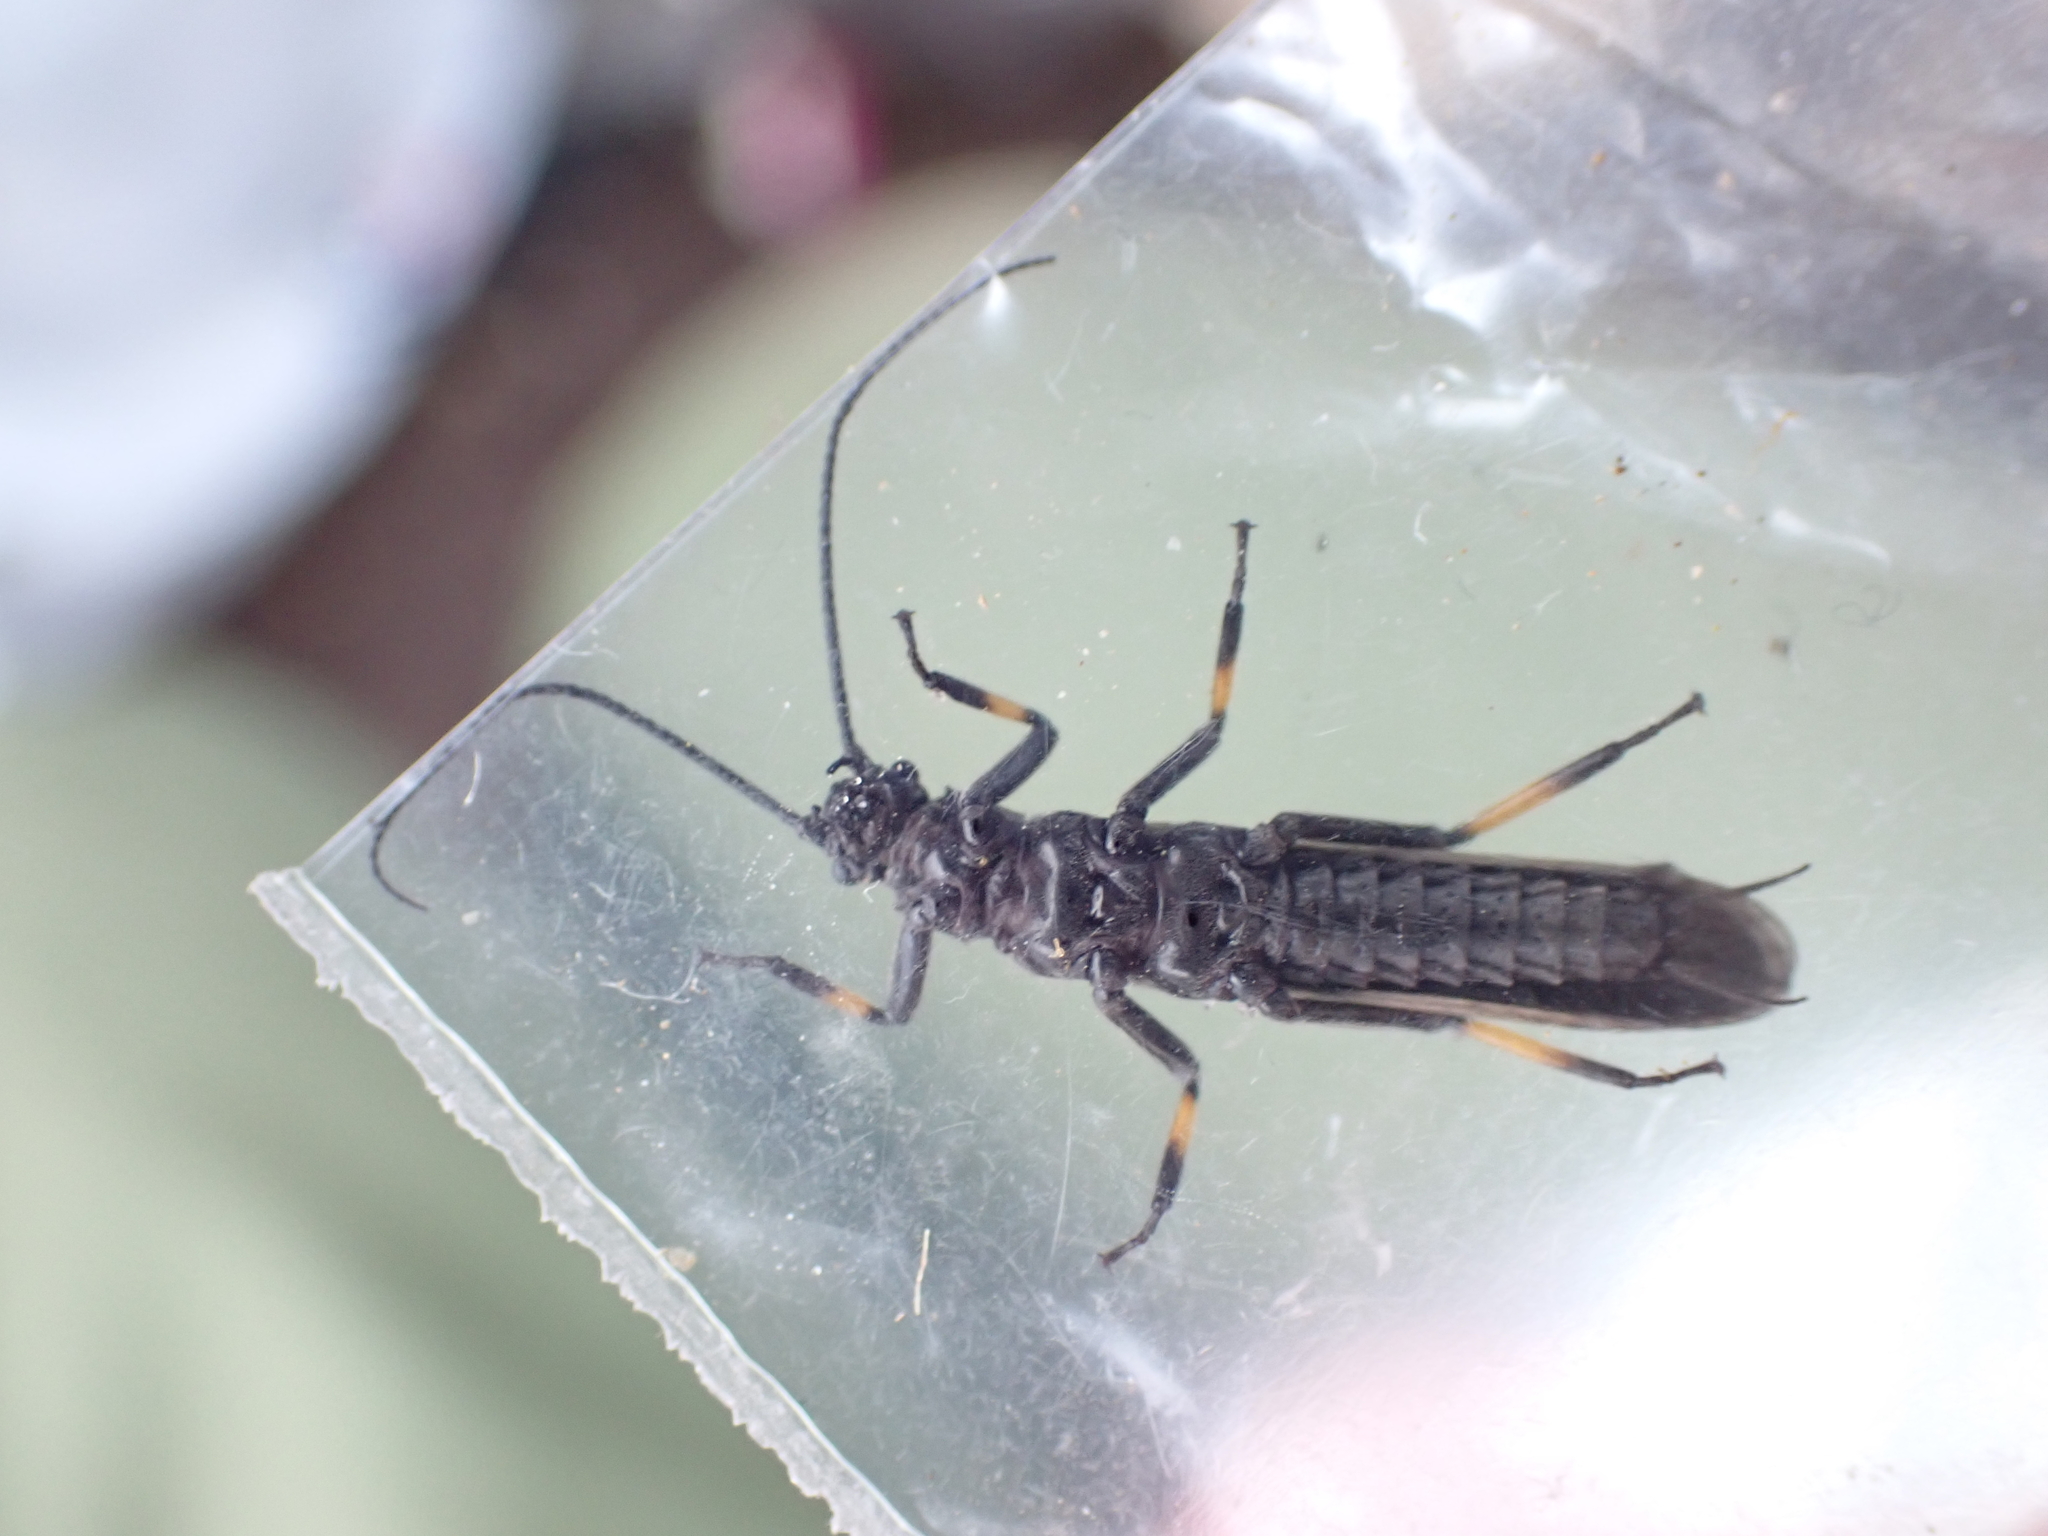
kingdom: Animalia
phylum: Arthropoda
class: Insecta
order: Plecoptera
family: Austroperlidae
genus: Austroperla
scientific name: Austroperla cyrene
